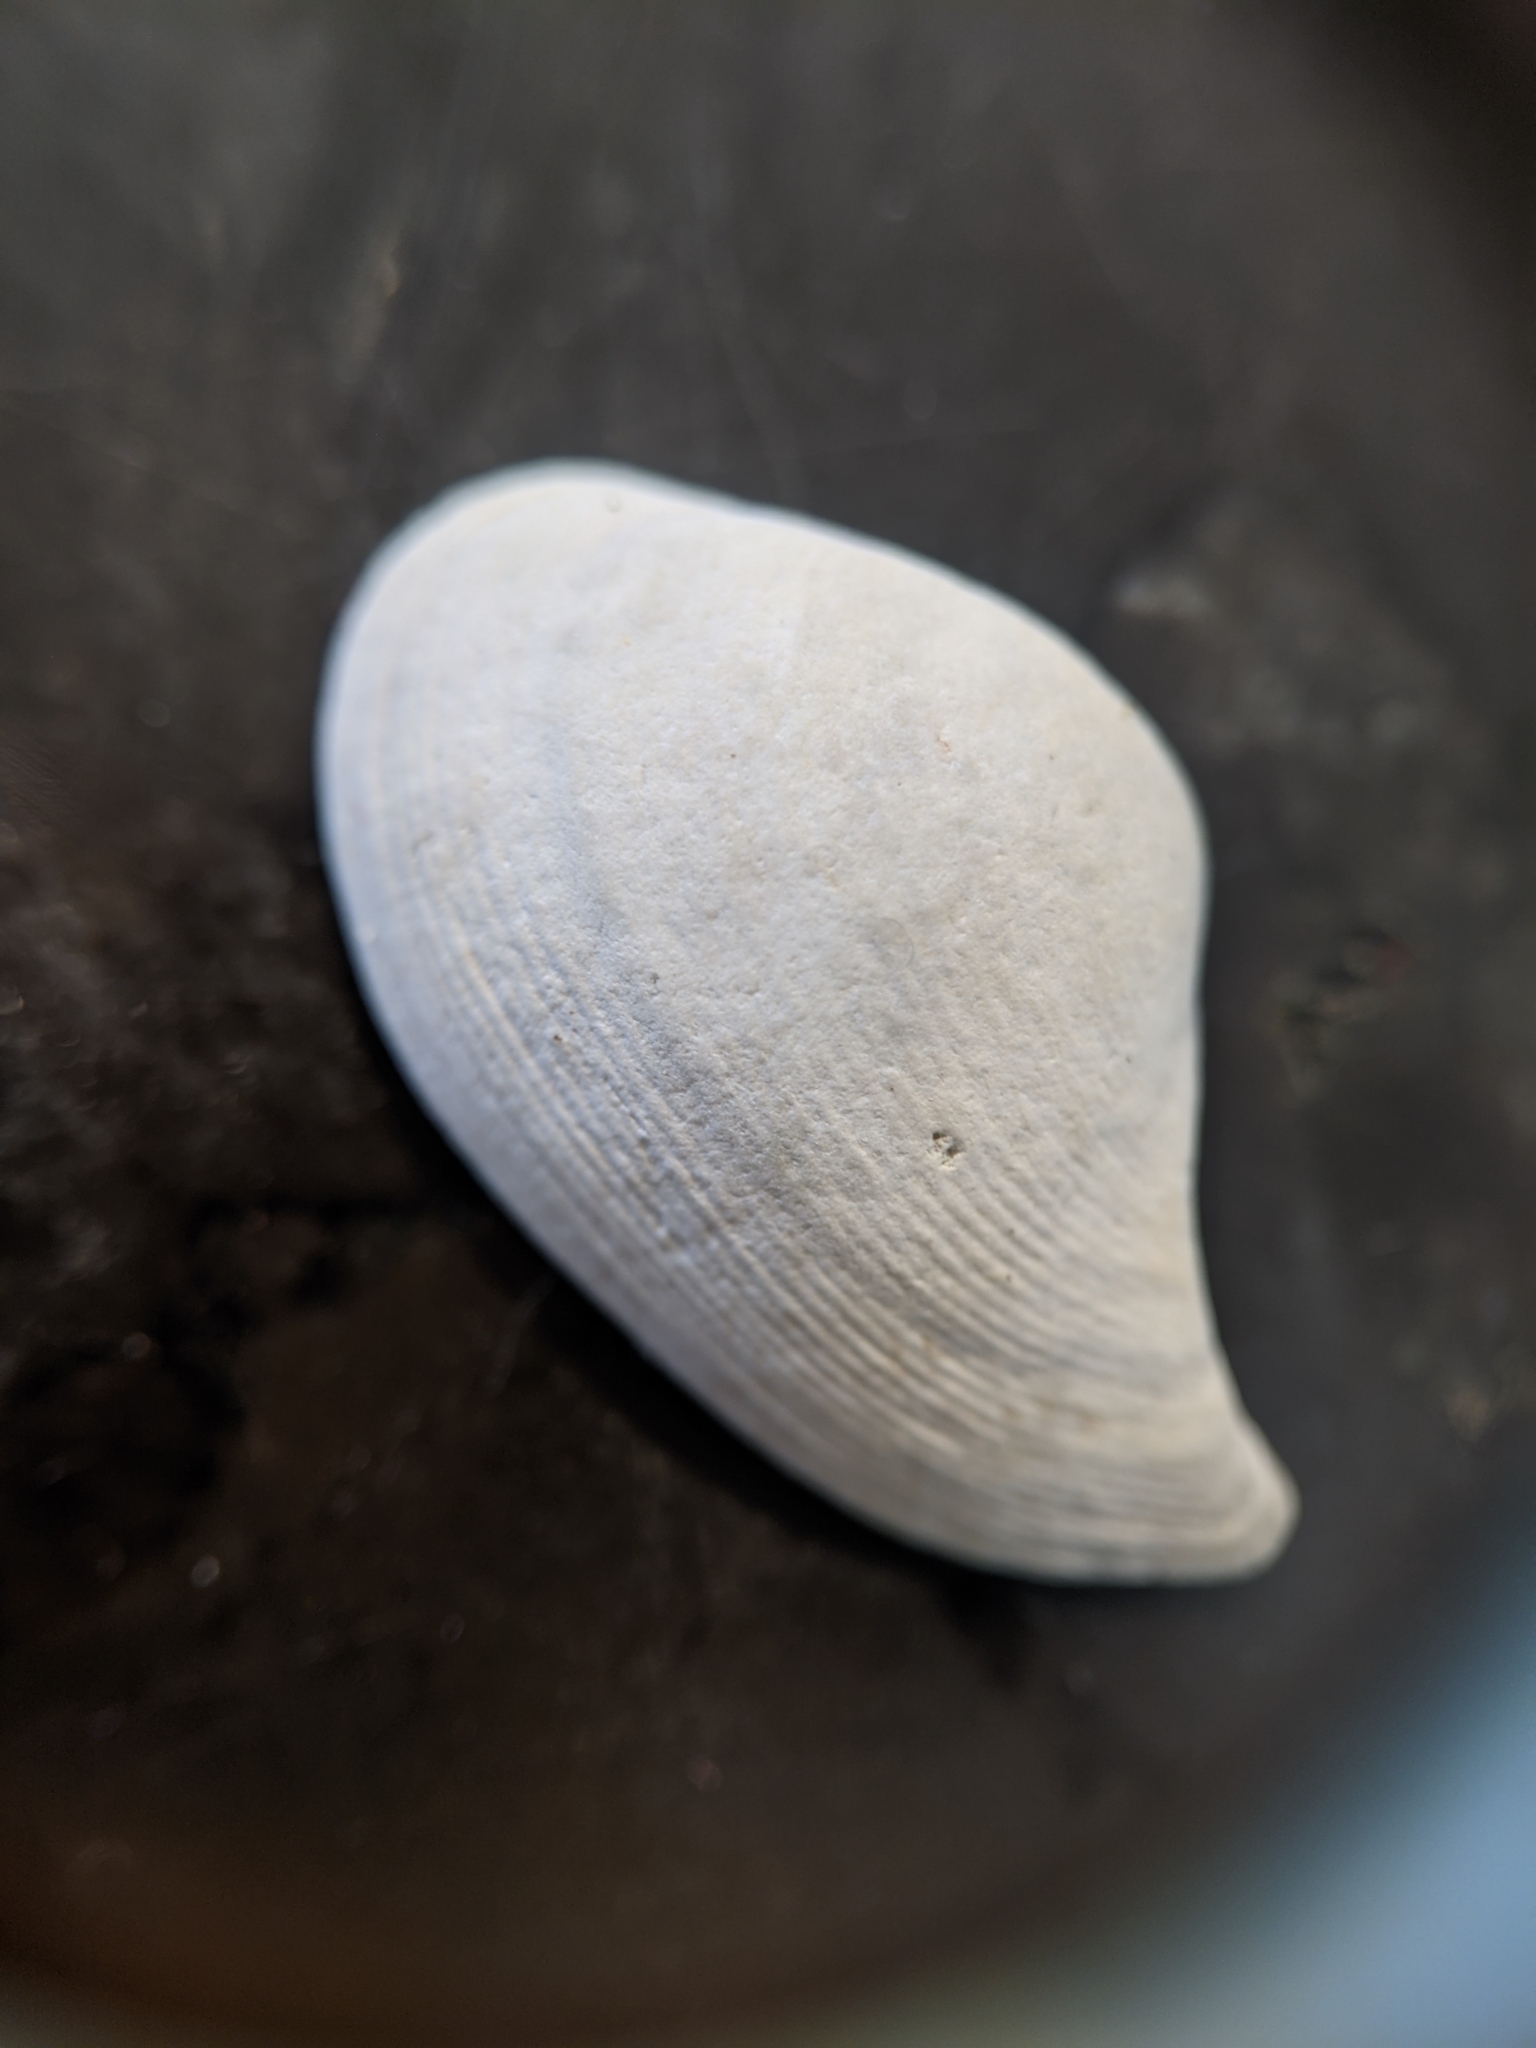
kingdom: Animalia
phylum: Mollusca
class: Bivalvia
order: Nuculanida
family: Nuculanidae
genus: Saccella
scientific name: Saccella penderi
